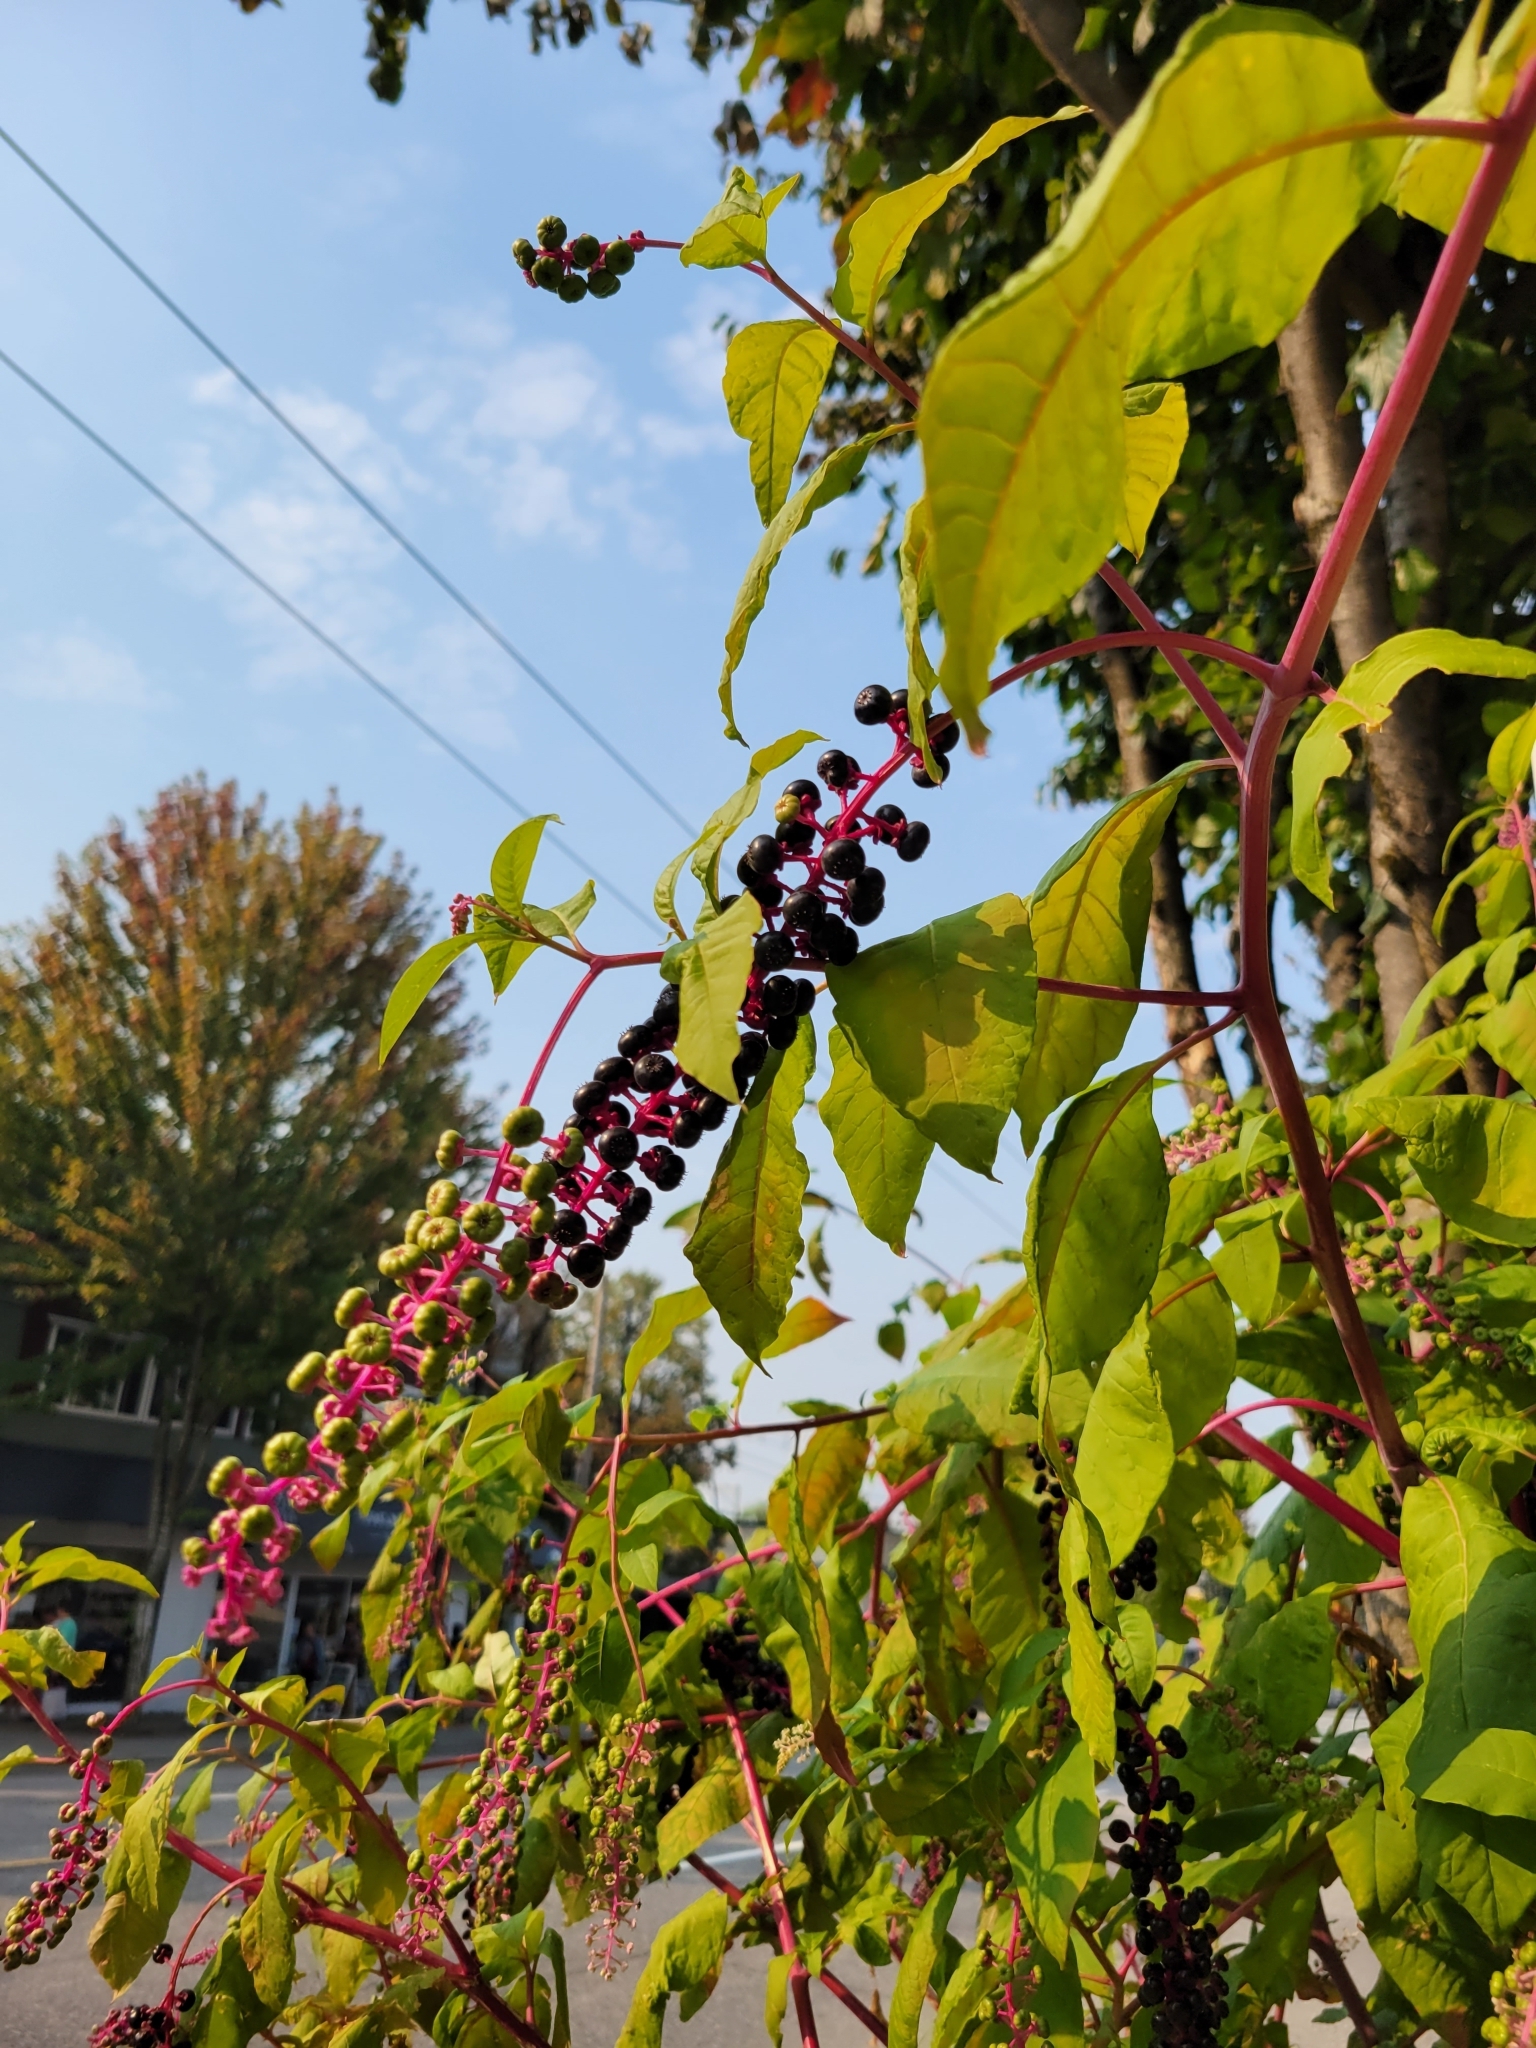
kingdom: Plantae
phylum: Tracheophyta
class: Magnoliopsida
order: Caryophyllales
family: Phytolaccaceae
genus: Phytolacca
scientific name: Phytolacca americana
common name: American pokeweed
